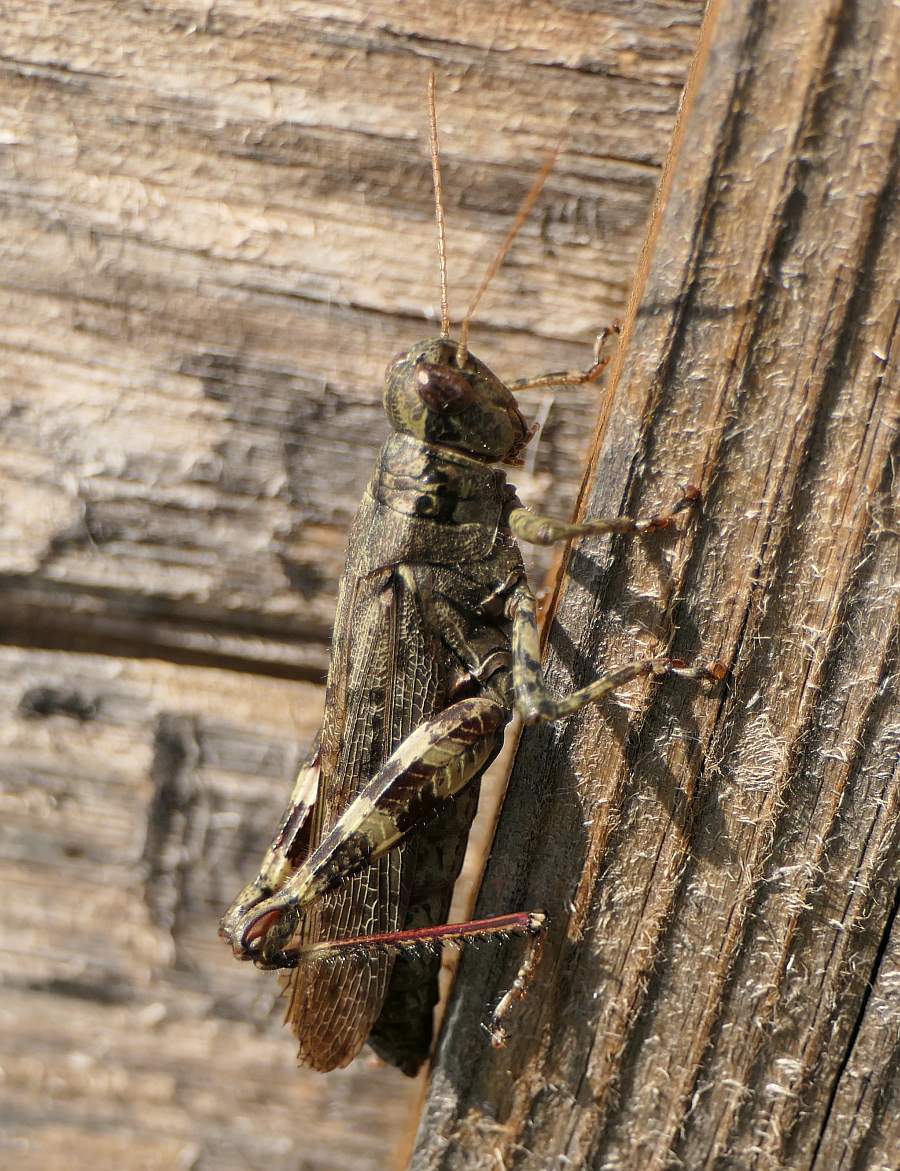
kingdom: Animalia
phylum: Arthropoda
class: Insecta
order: Orthoptera
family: Acrididae
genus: Melanoplus
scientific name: Melanoplus punctulatus
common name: Pine-tree spur-throat grasshopper
